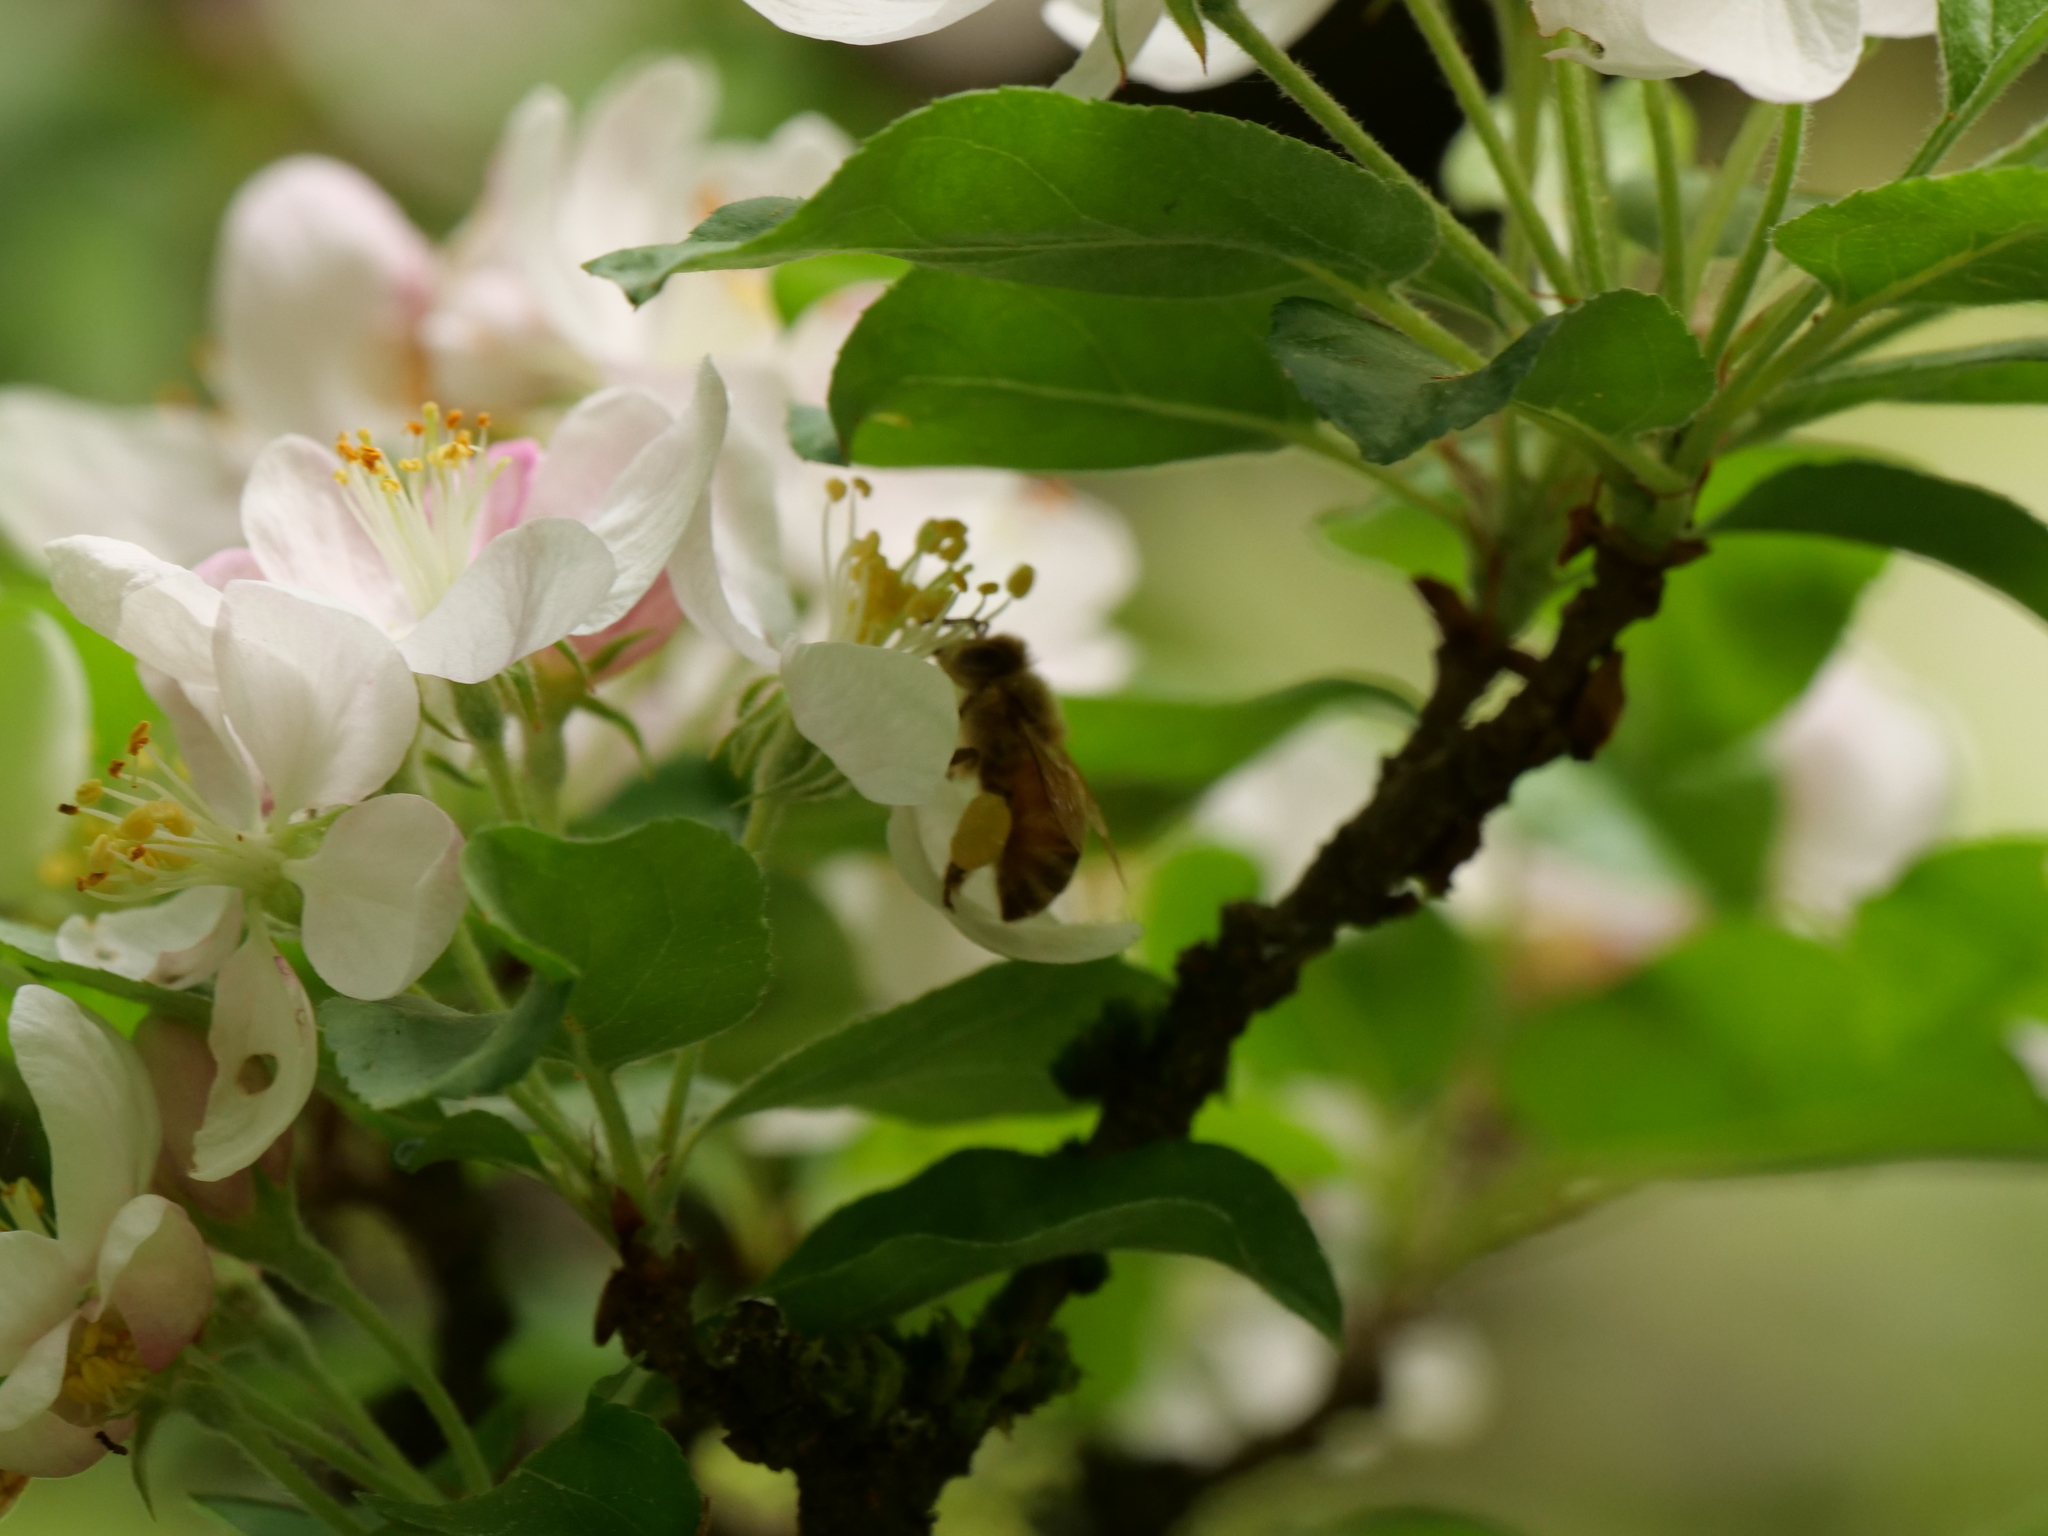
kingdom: Animalia
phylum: Arthropoda
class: Insecta
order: Hymenoptera
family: Apidae
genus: Apis
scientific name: Apis mellifera
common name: Honey bee
